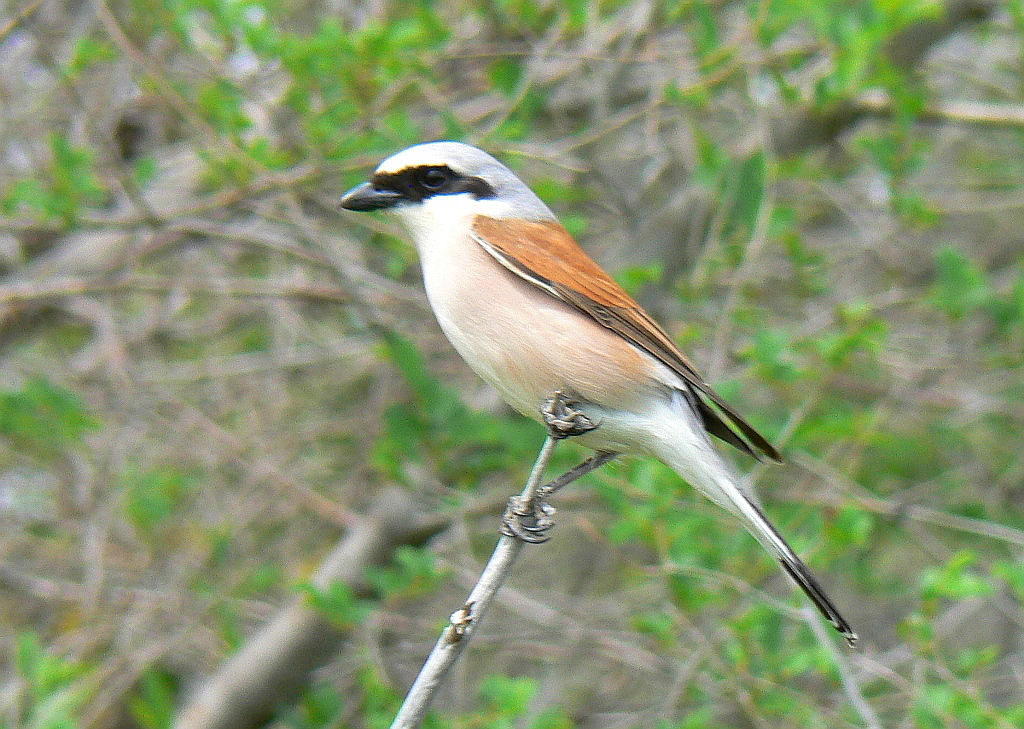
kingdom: Animalia
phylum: Chordata
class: Aves
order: Passeriformes
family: Laniidae
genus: Lanius
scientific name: Lanius collurio
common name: Red-backed shrike
